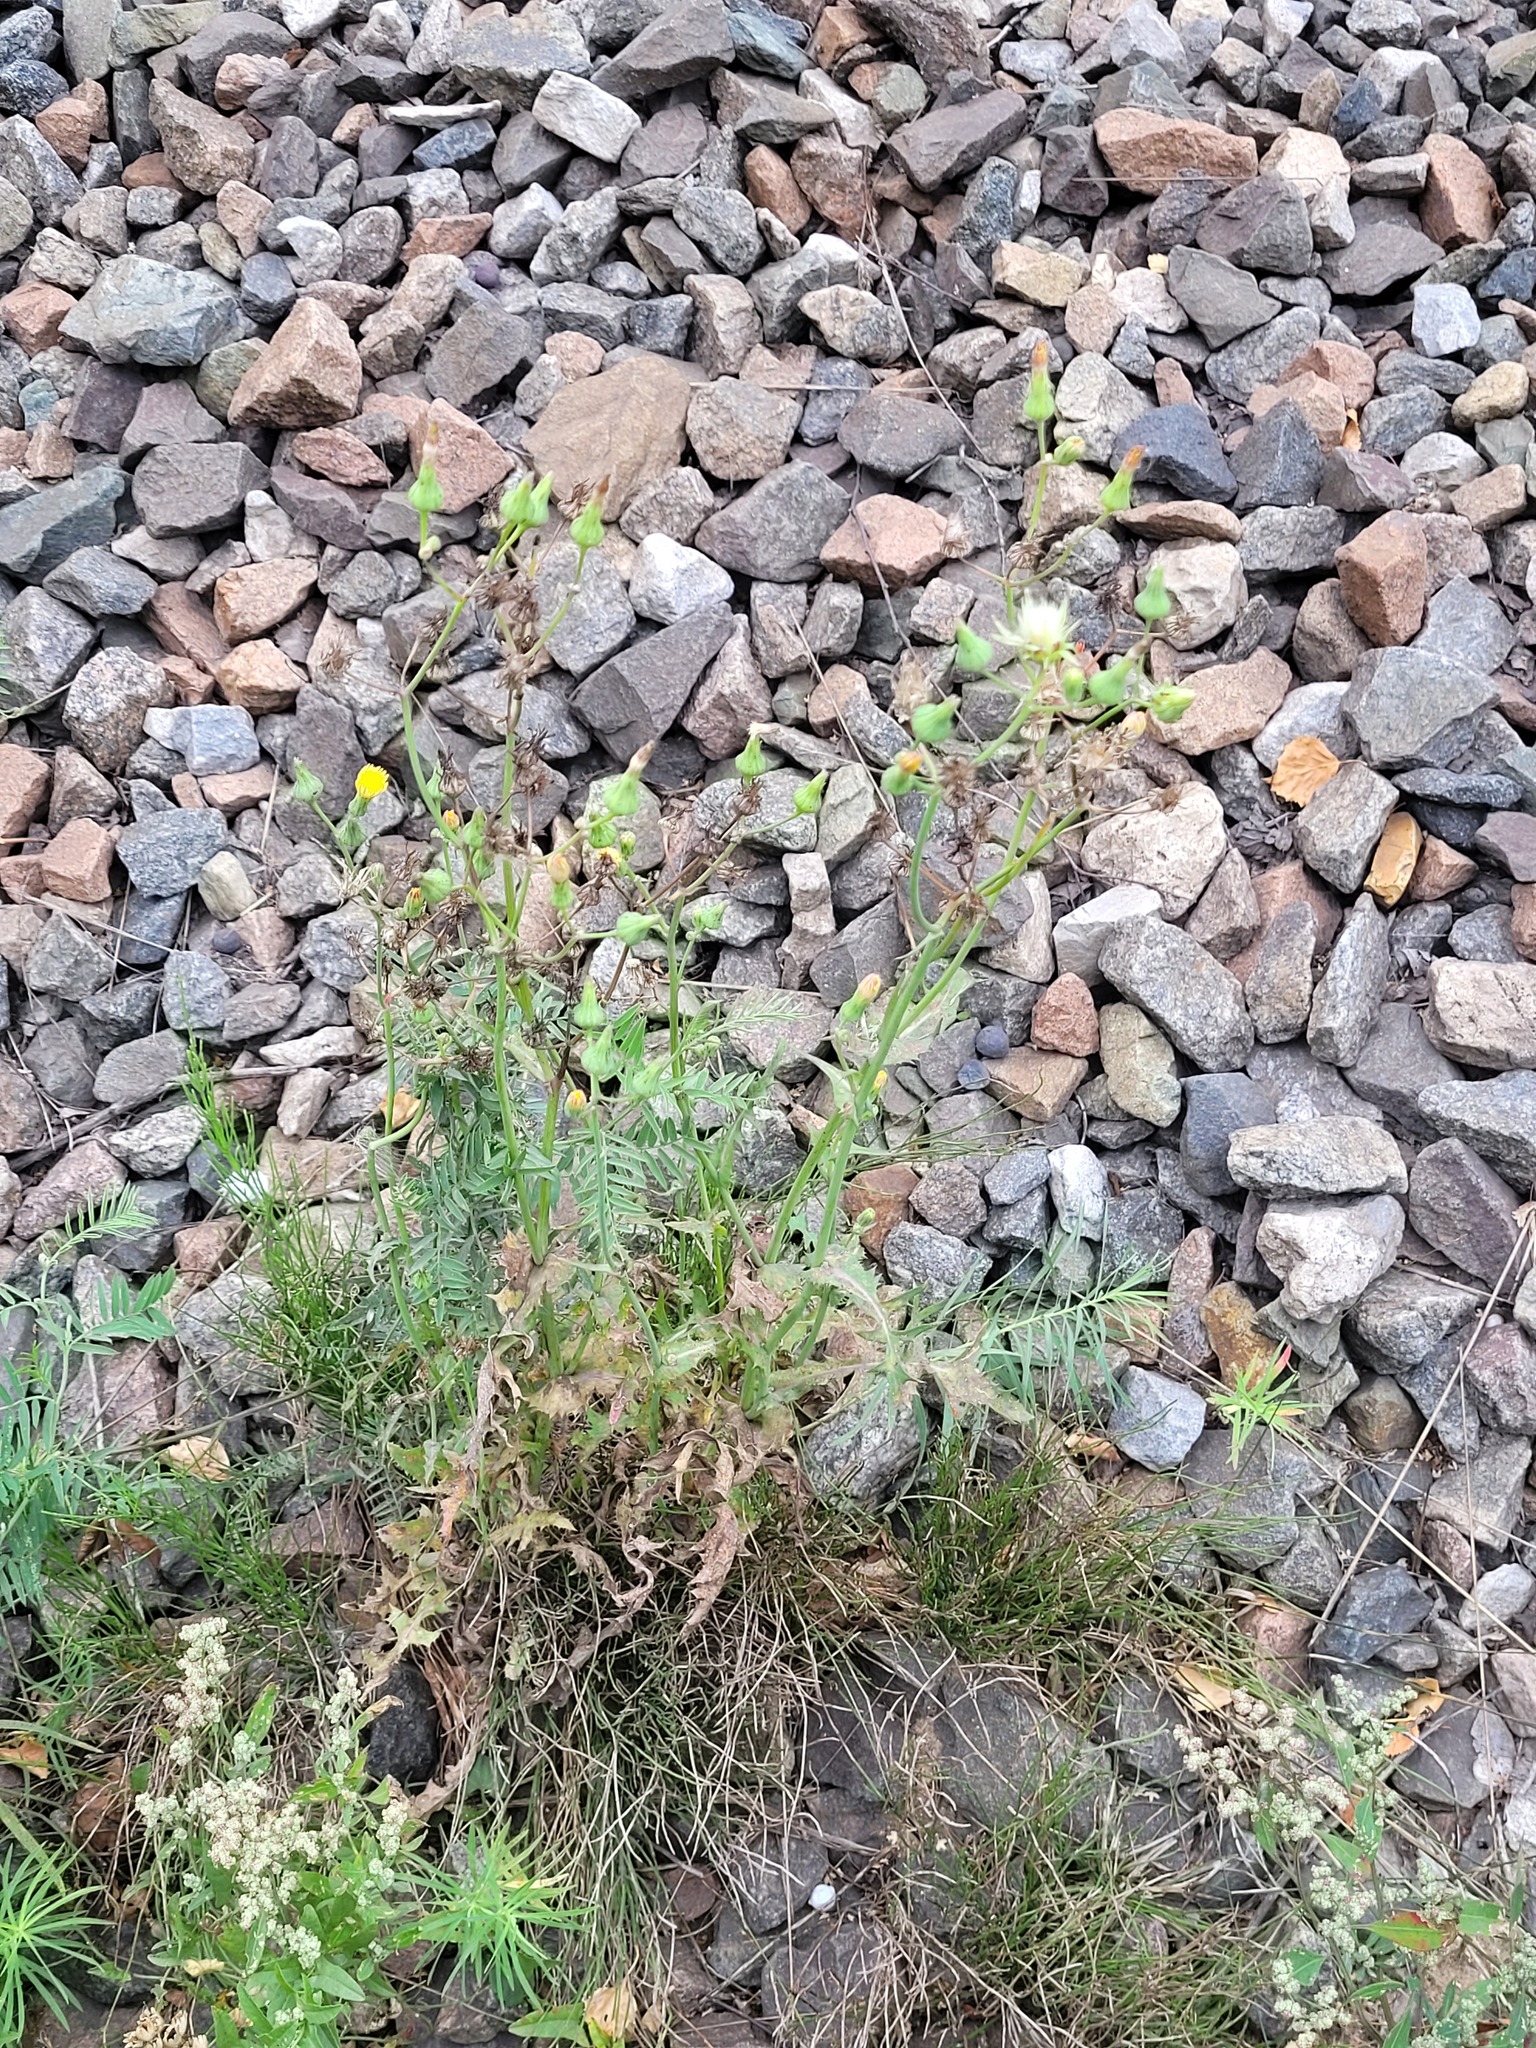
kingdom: Plantae
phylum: Tracheophyta
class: Magnoliopsida
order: Asterales
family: Asteraceae
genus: Sonchus
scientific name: Sonchus oleraceus
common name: Common sowthistle
